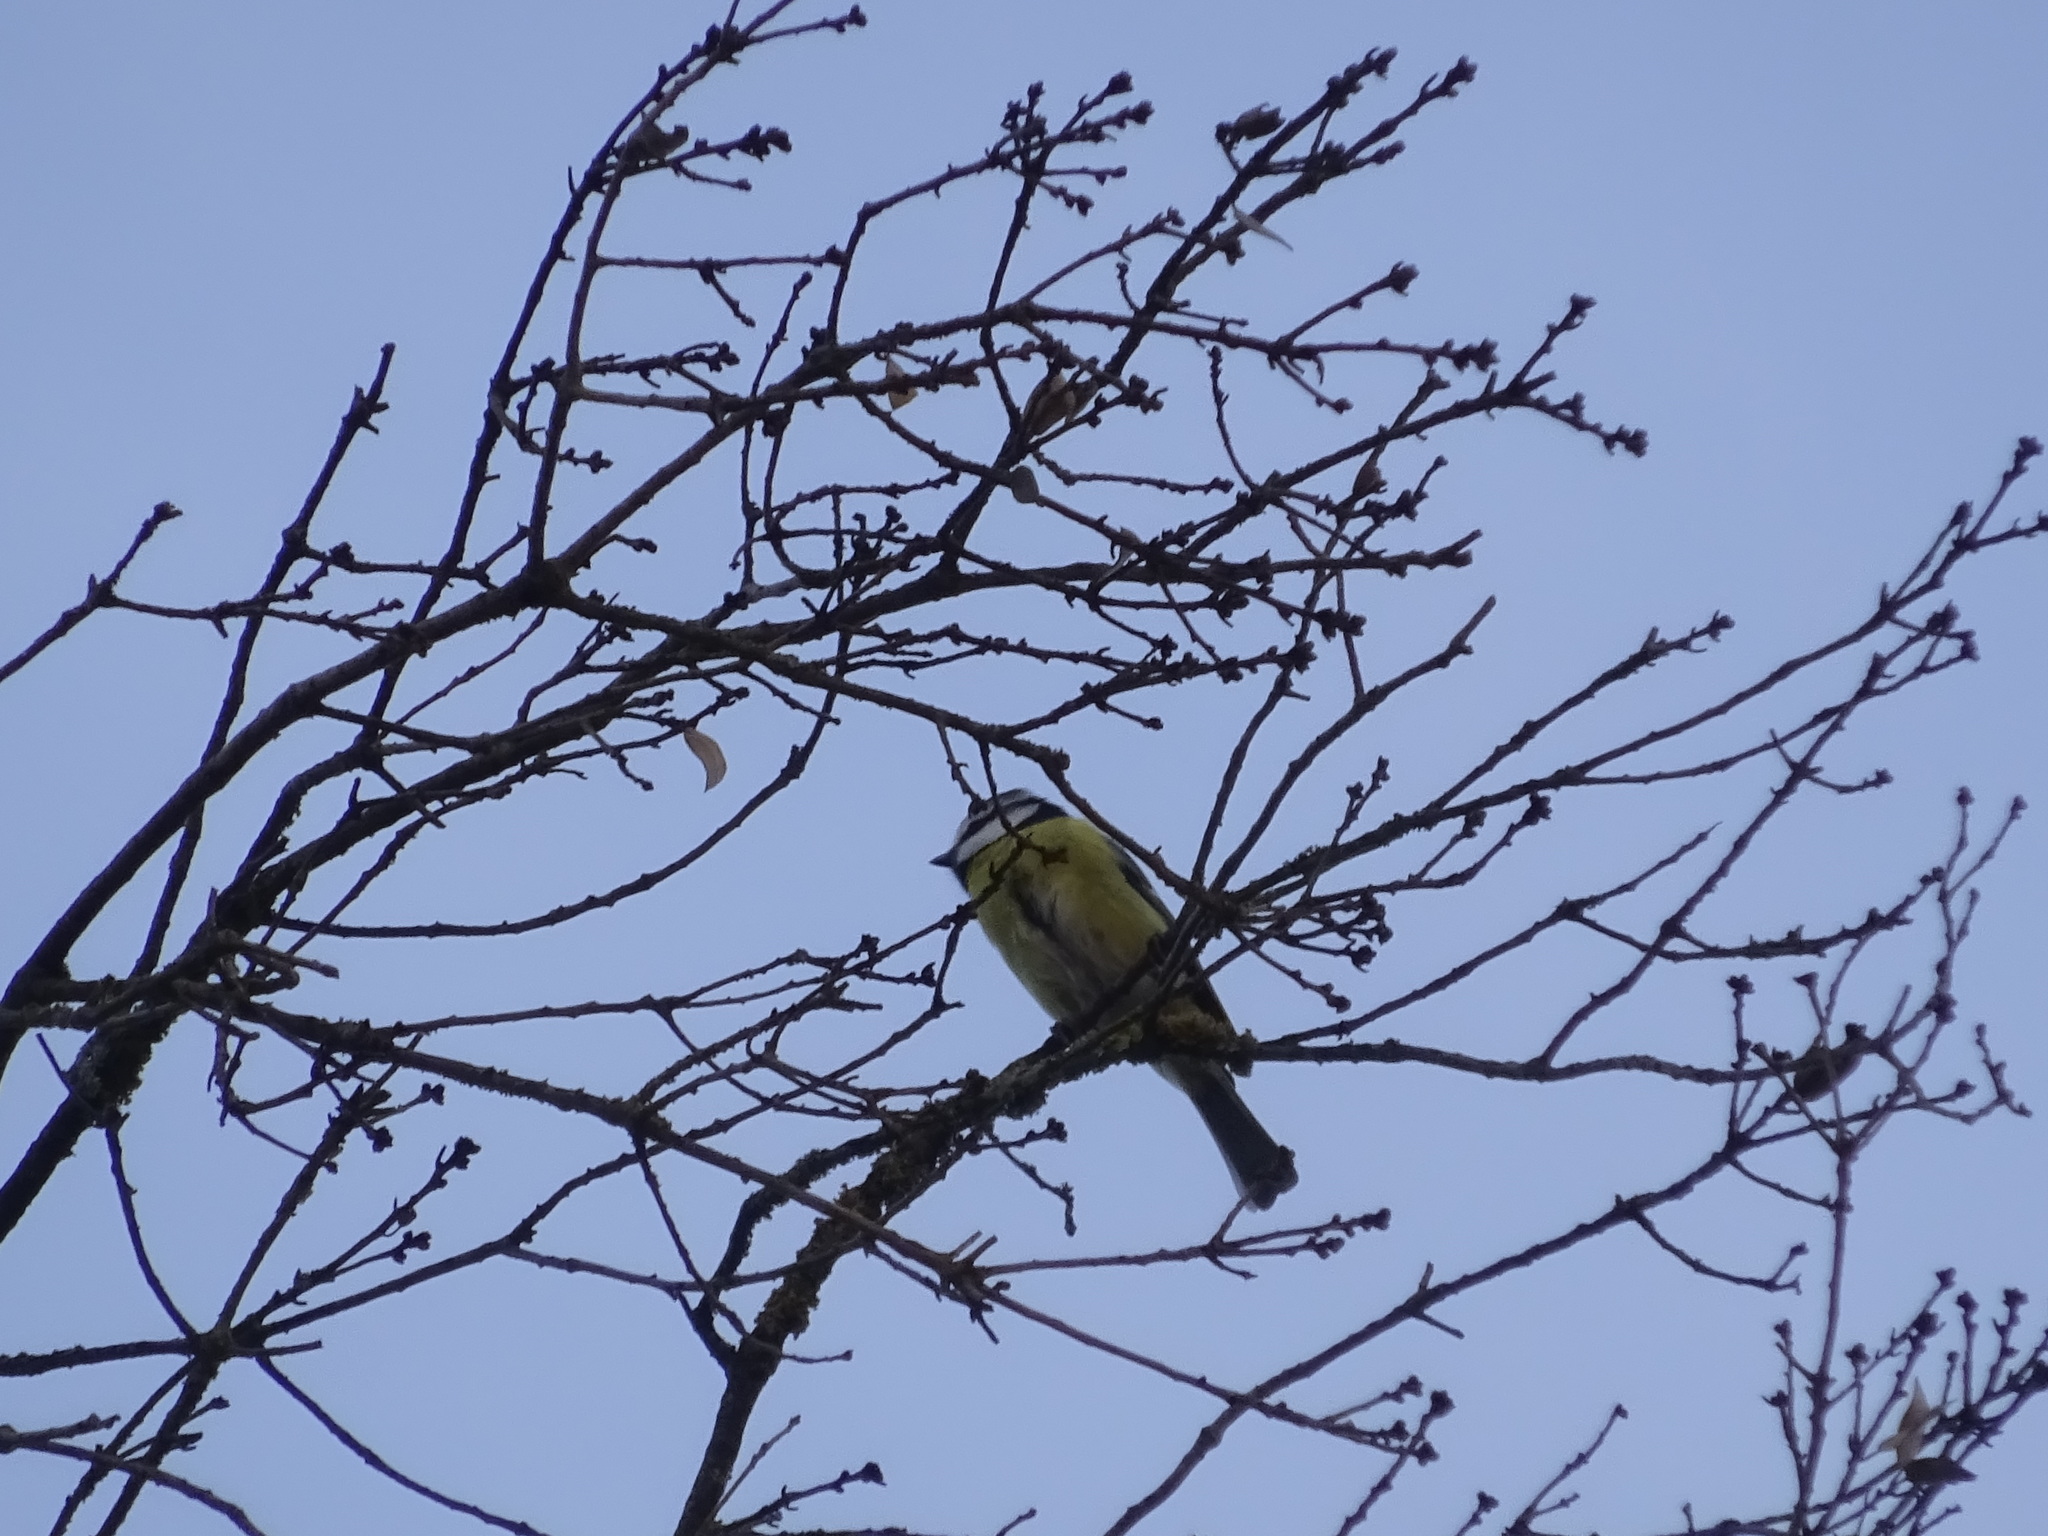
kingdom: Animalia
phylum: Chordata
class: Aves
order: Passeriformes
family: Paridae
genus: Cyanistes
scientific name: Cyanistes caeruleus
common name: Eurasian blue tit
